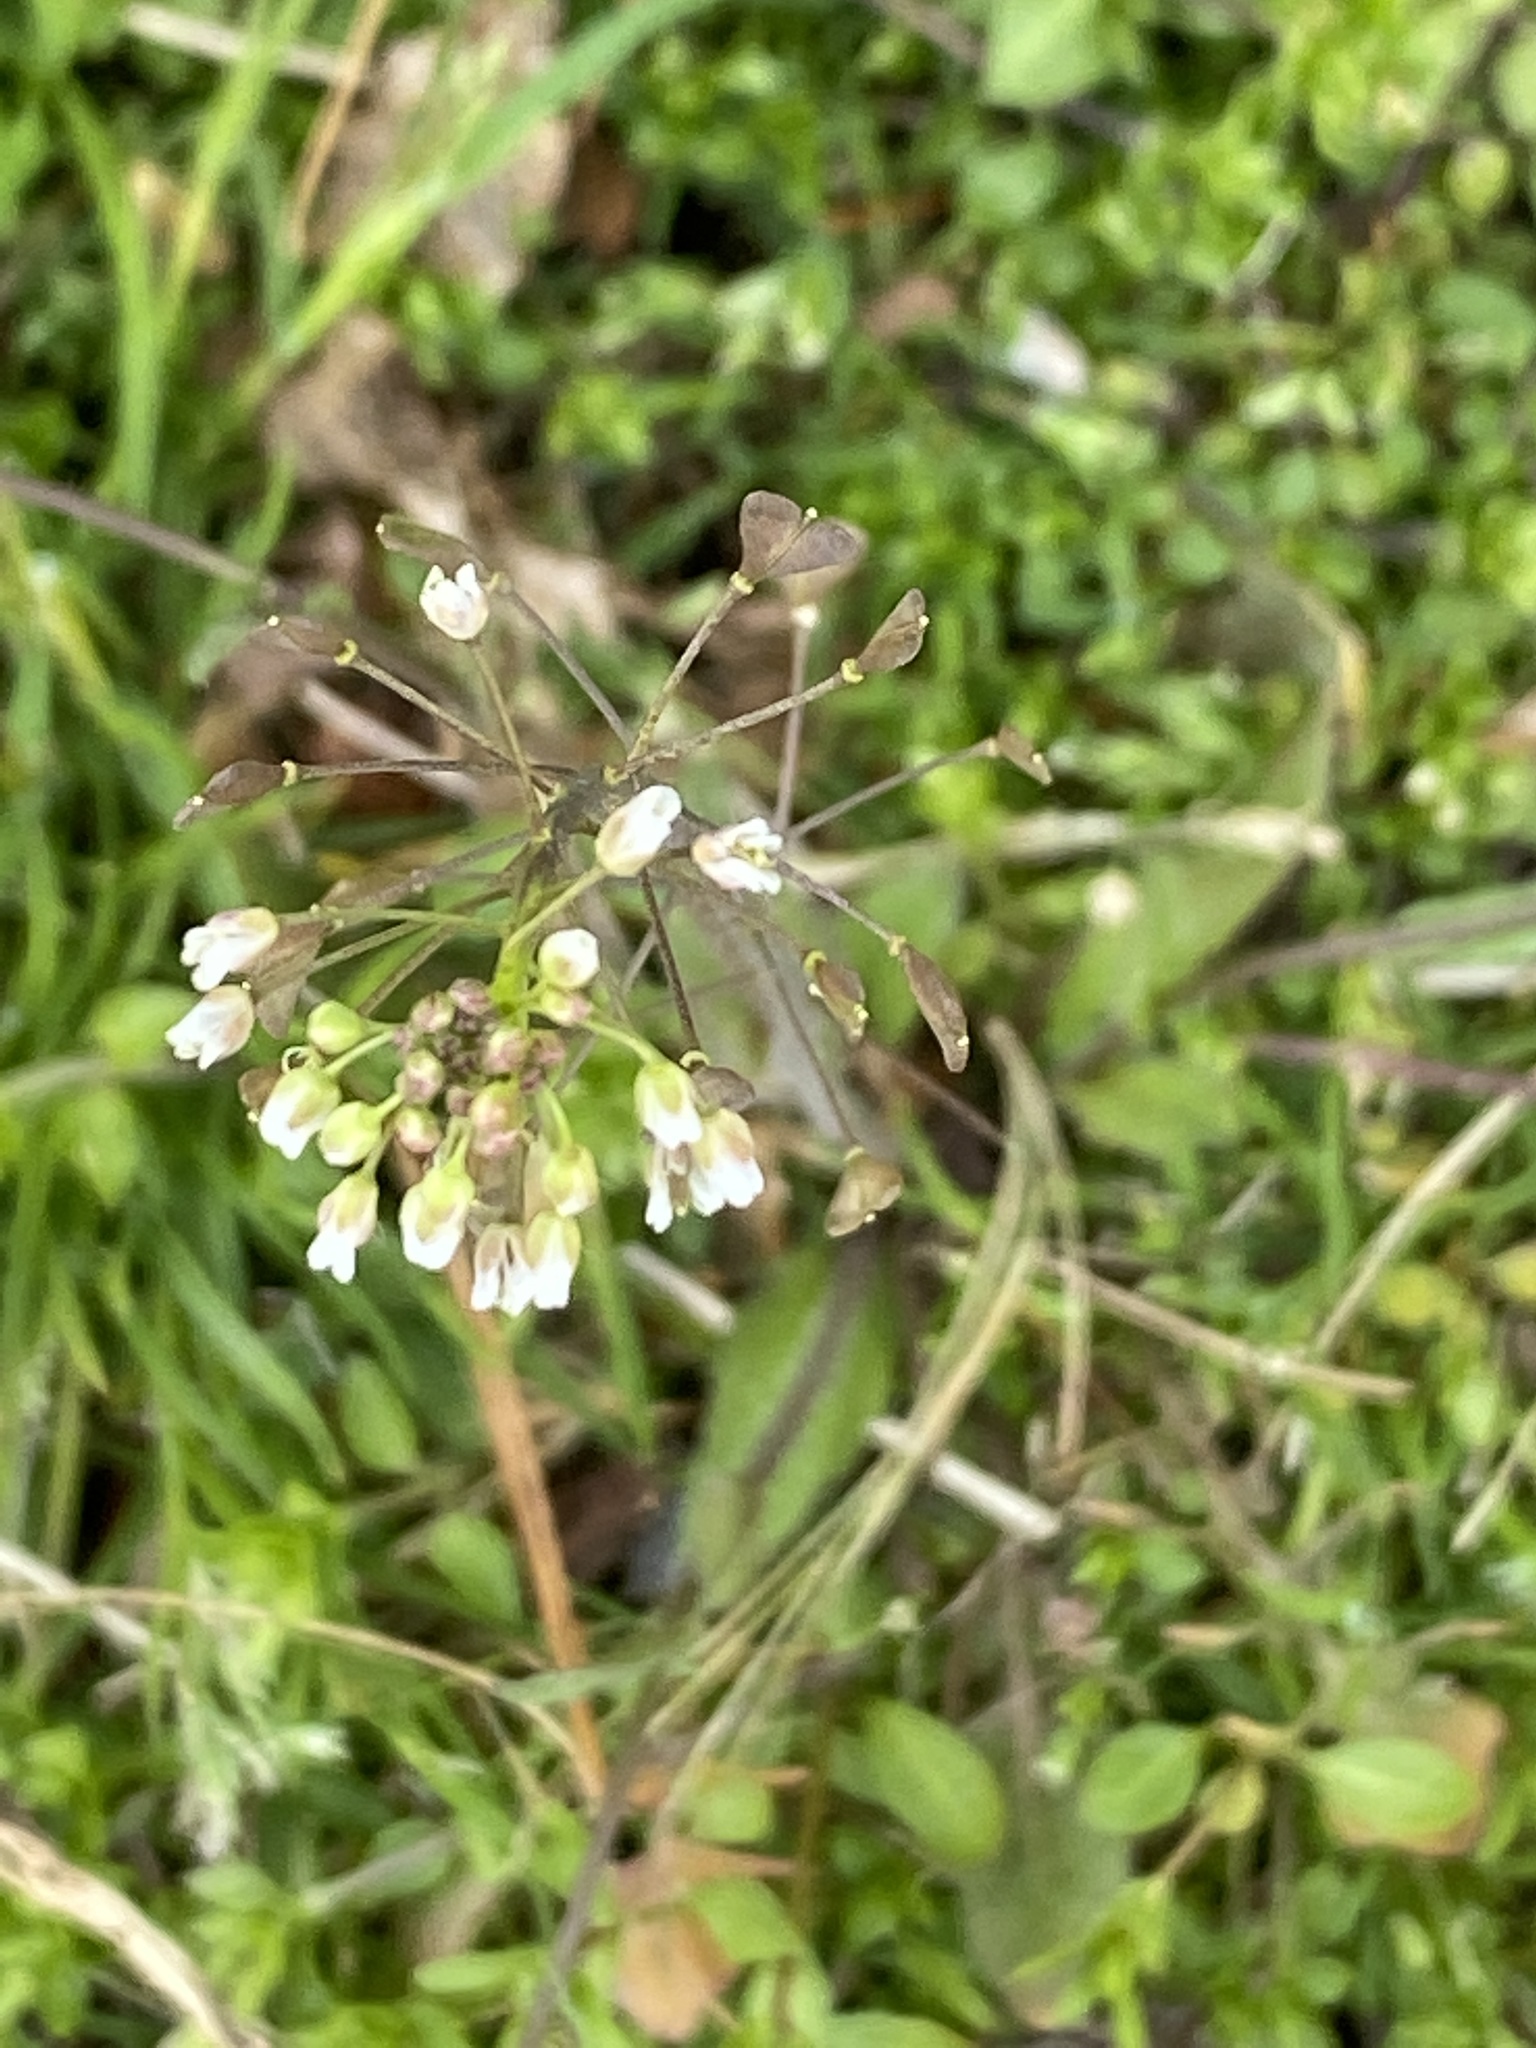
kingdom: Plantae
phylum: Tracheophyta
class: Magnoliopsida
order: Brassicales
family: Brassicaceae
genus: Capsella
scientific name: Capsella bursa-pastoris
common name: Shepherd's purse
